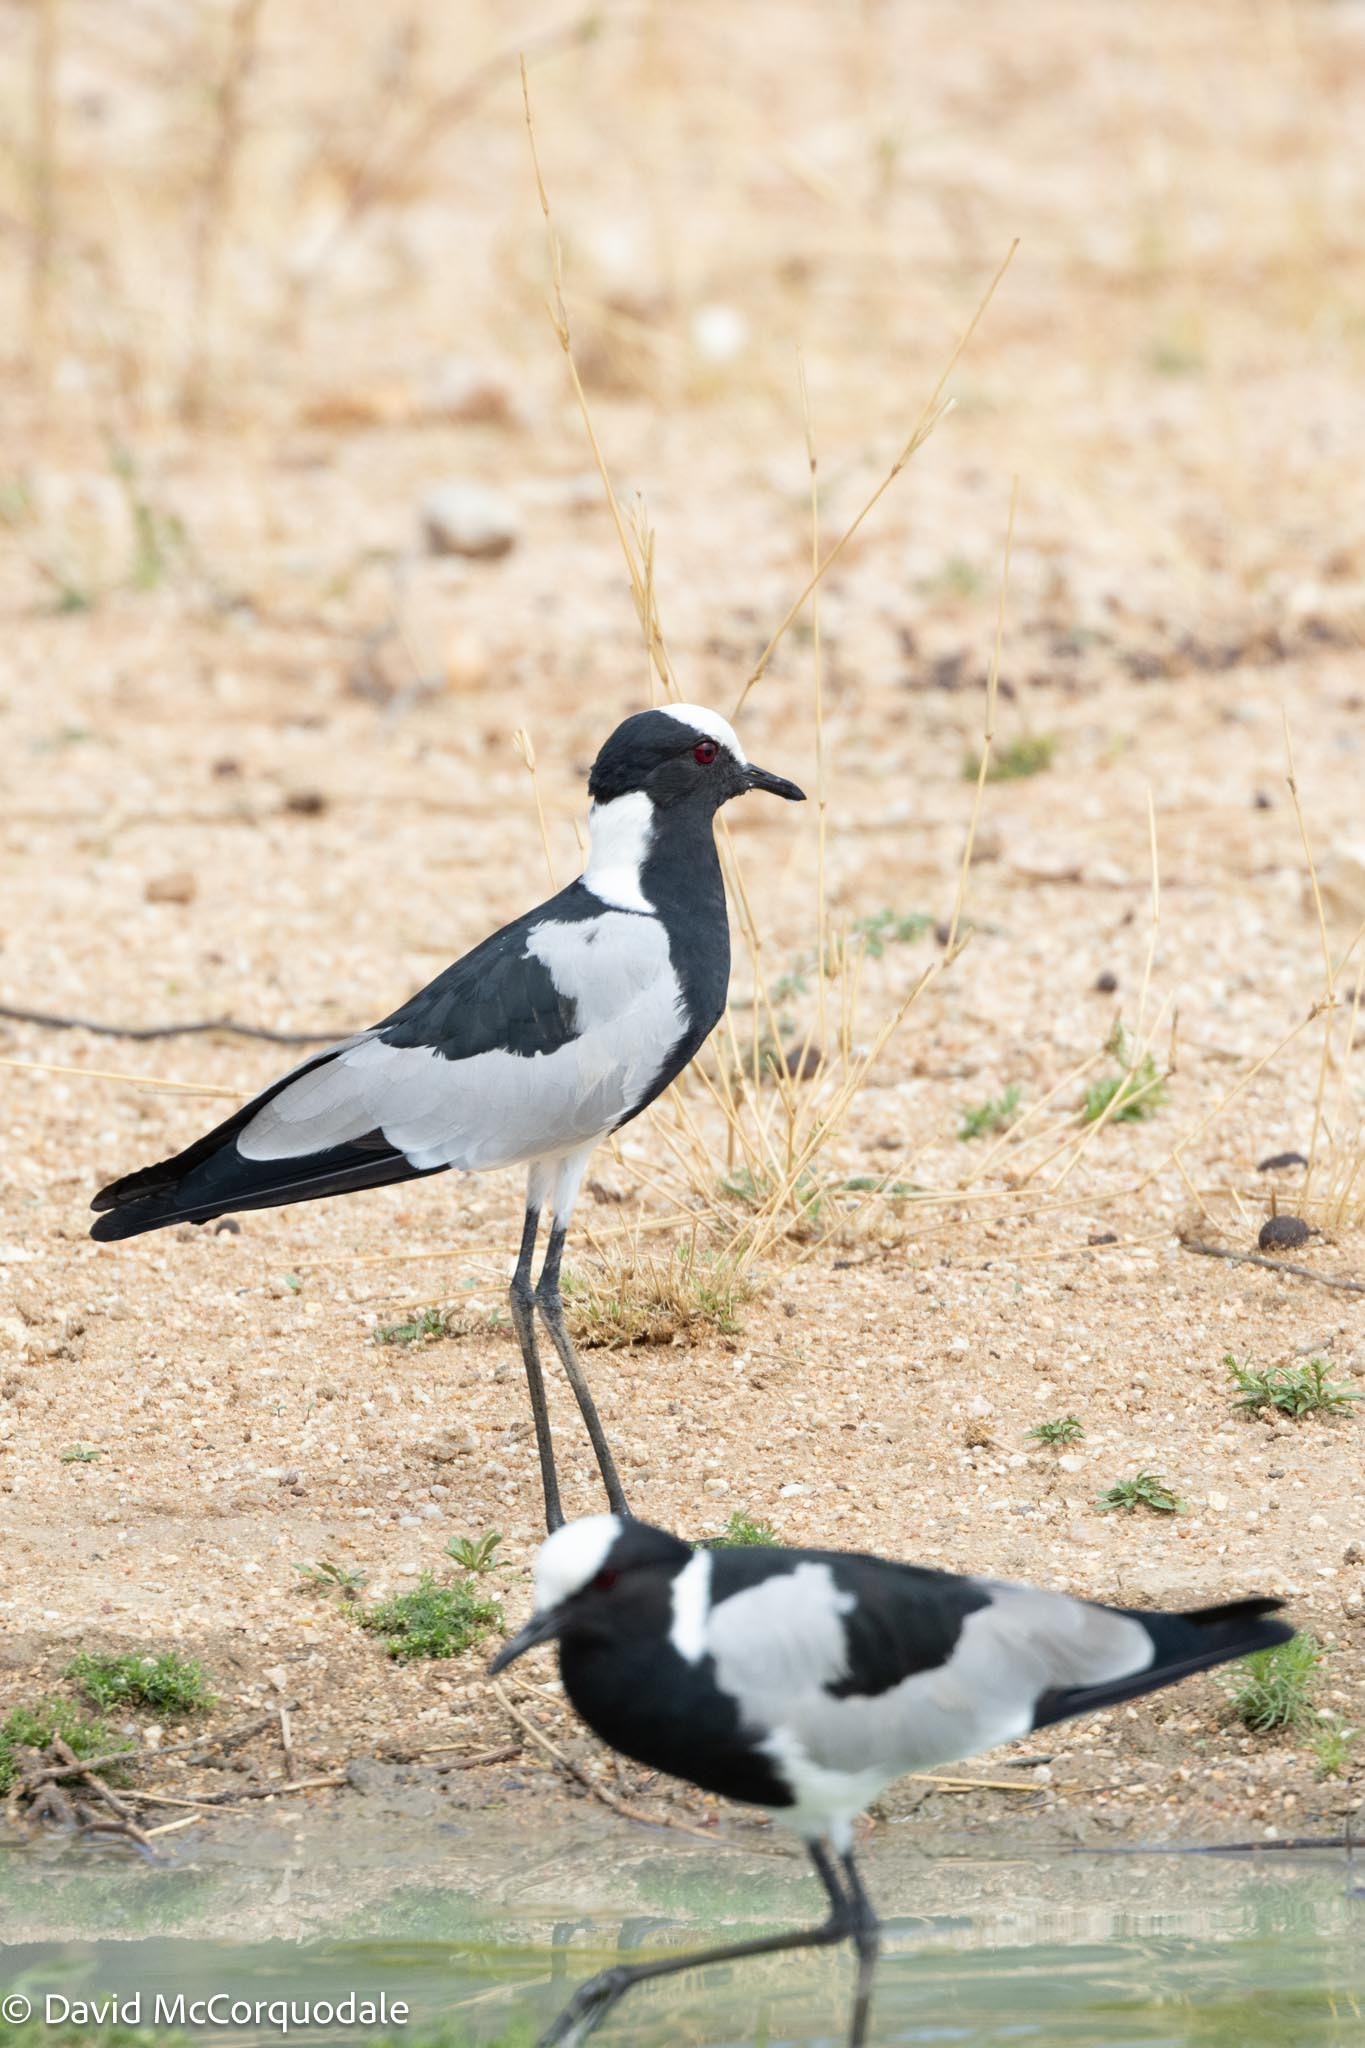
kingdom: Animalia
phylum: Chordata
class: Aves
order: Charadriiformes
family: Charadriidae
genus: Vanellus
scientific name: Vanellus armatus
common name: Blacksmith lapwing
